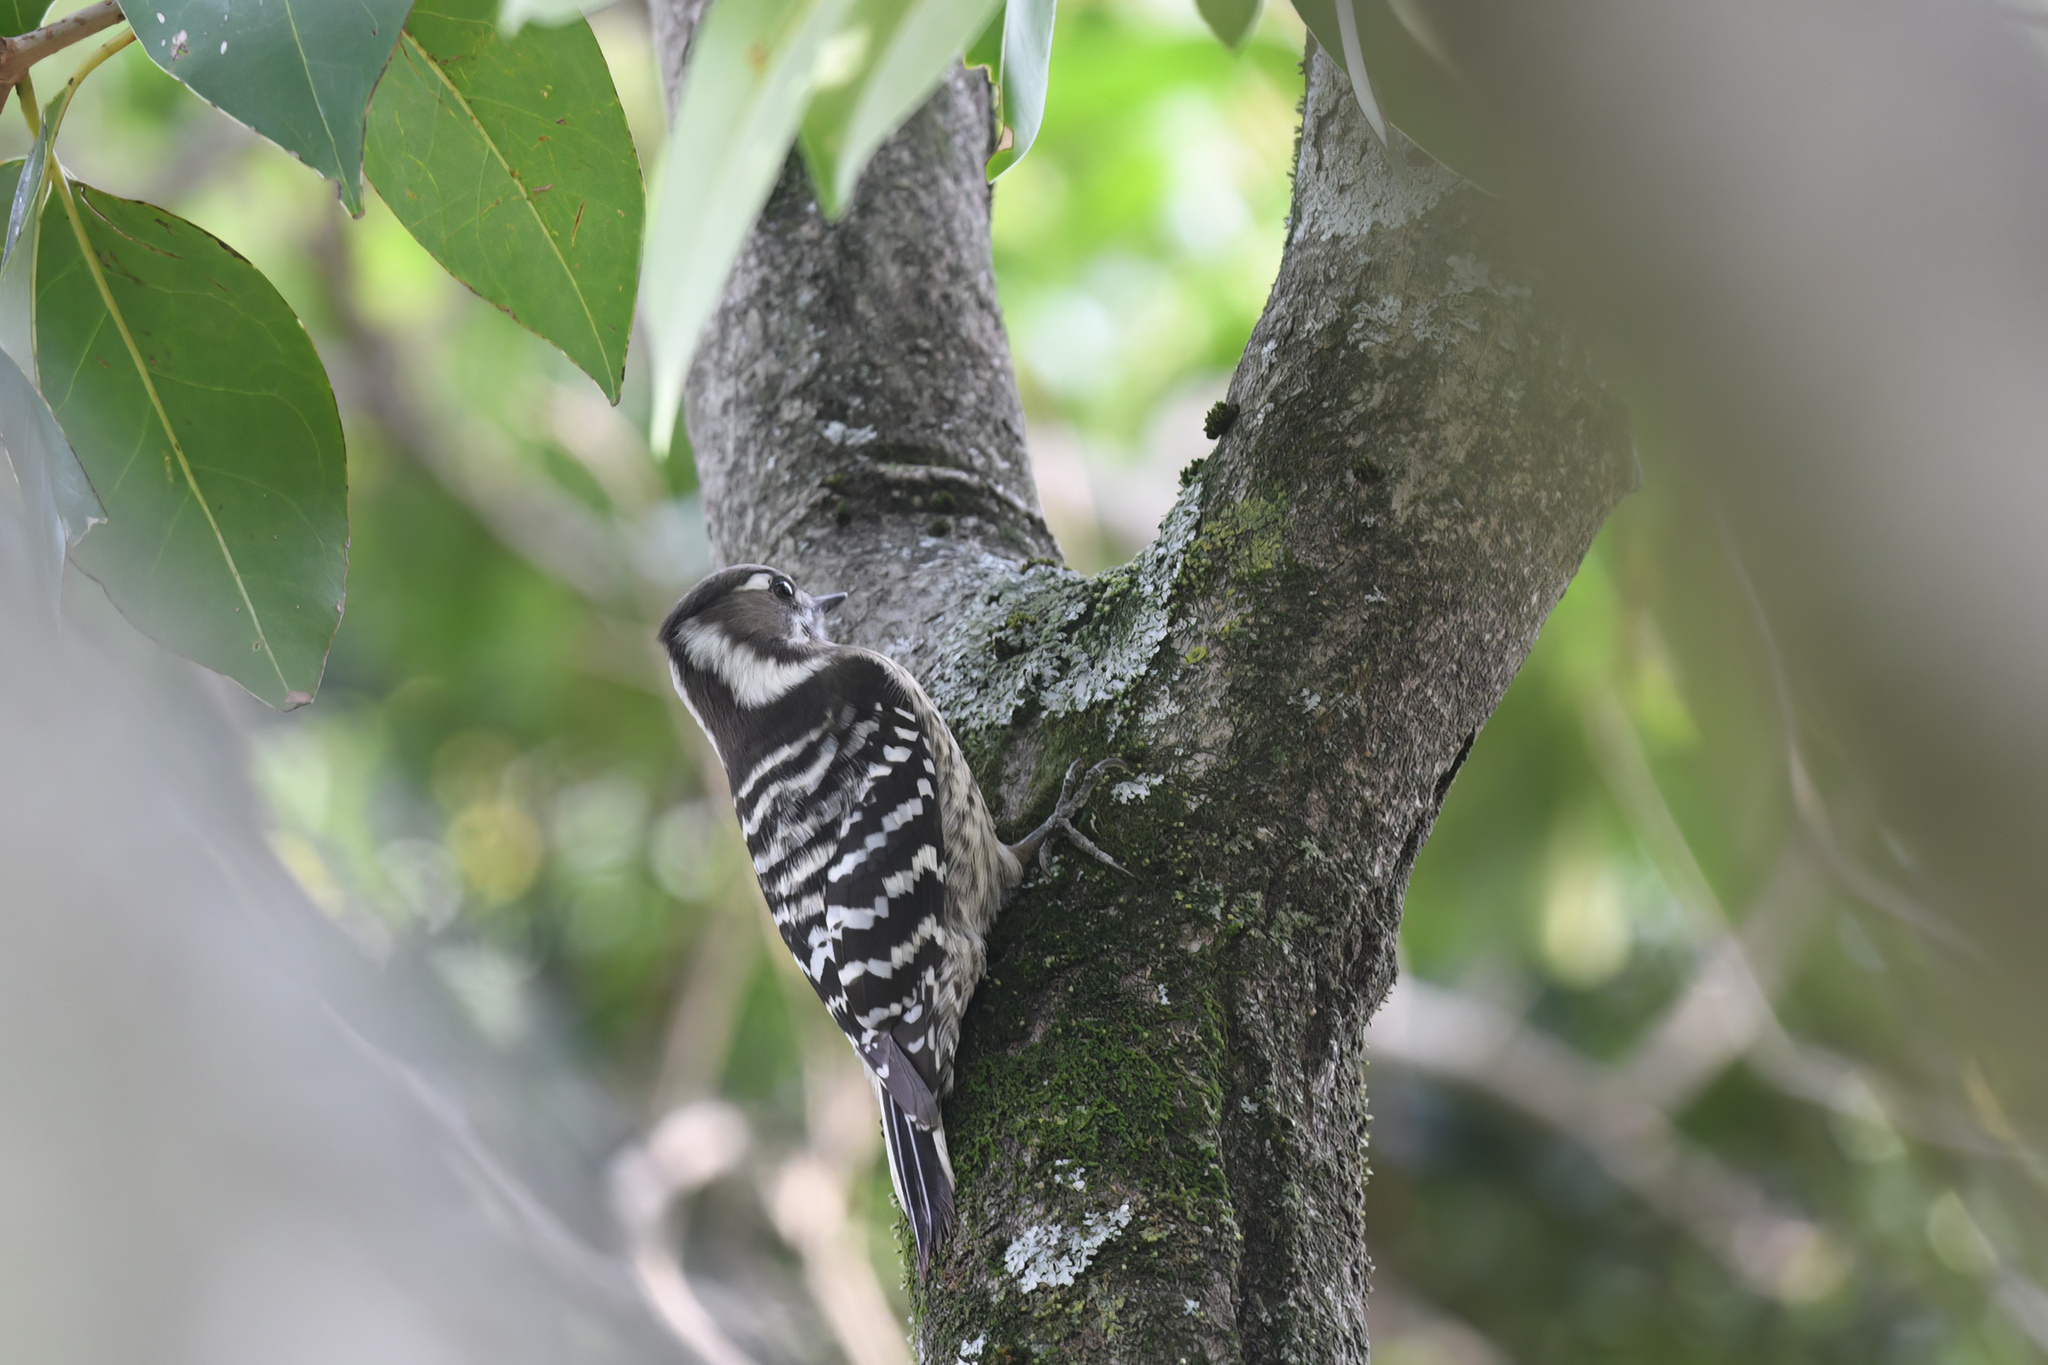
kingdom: Animalia
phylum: Chordata
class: Aves
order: Piciformes
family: Picidae
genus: Yungipicus
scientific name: Yungipicus kizuki
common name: Japanese pygmy woodpecker
